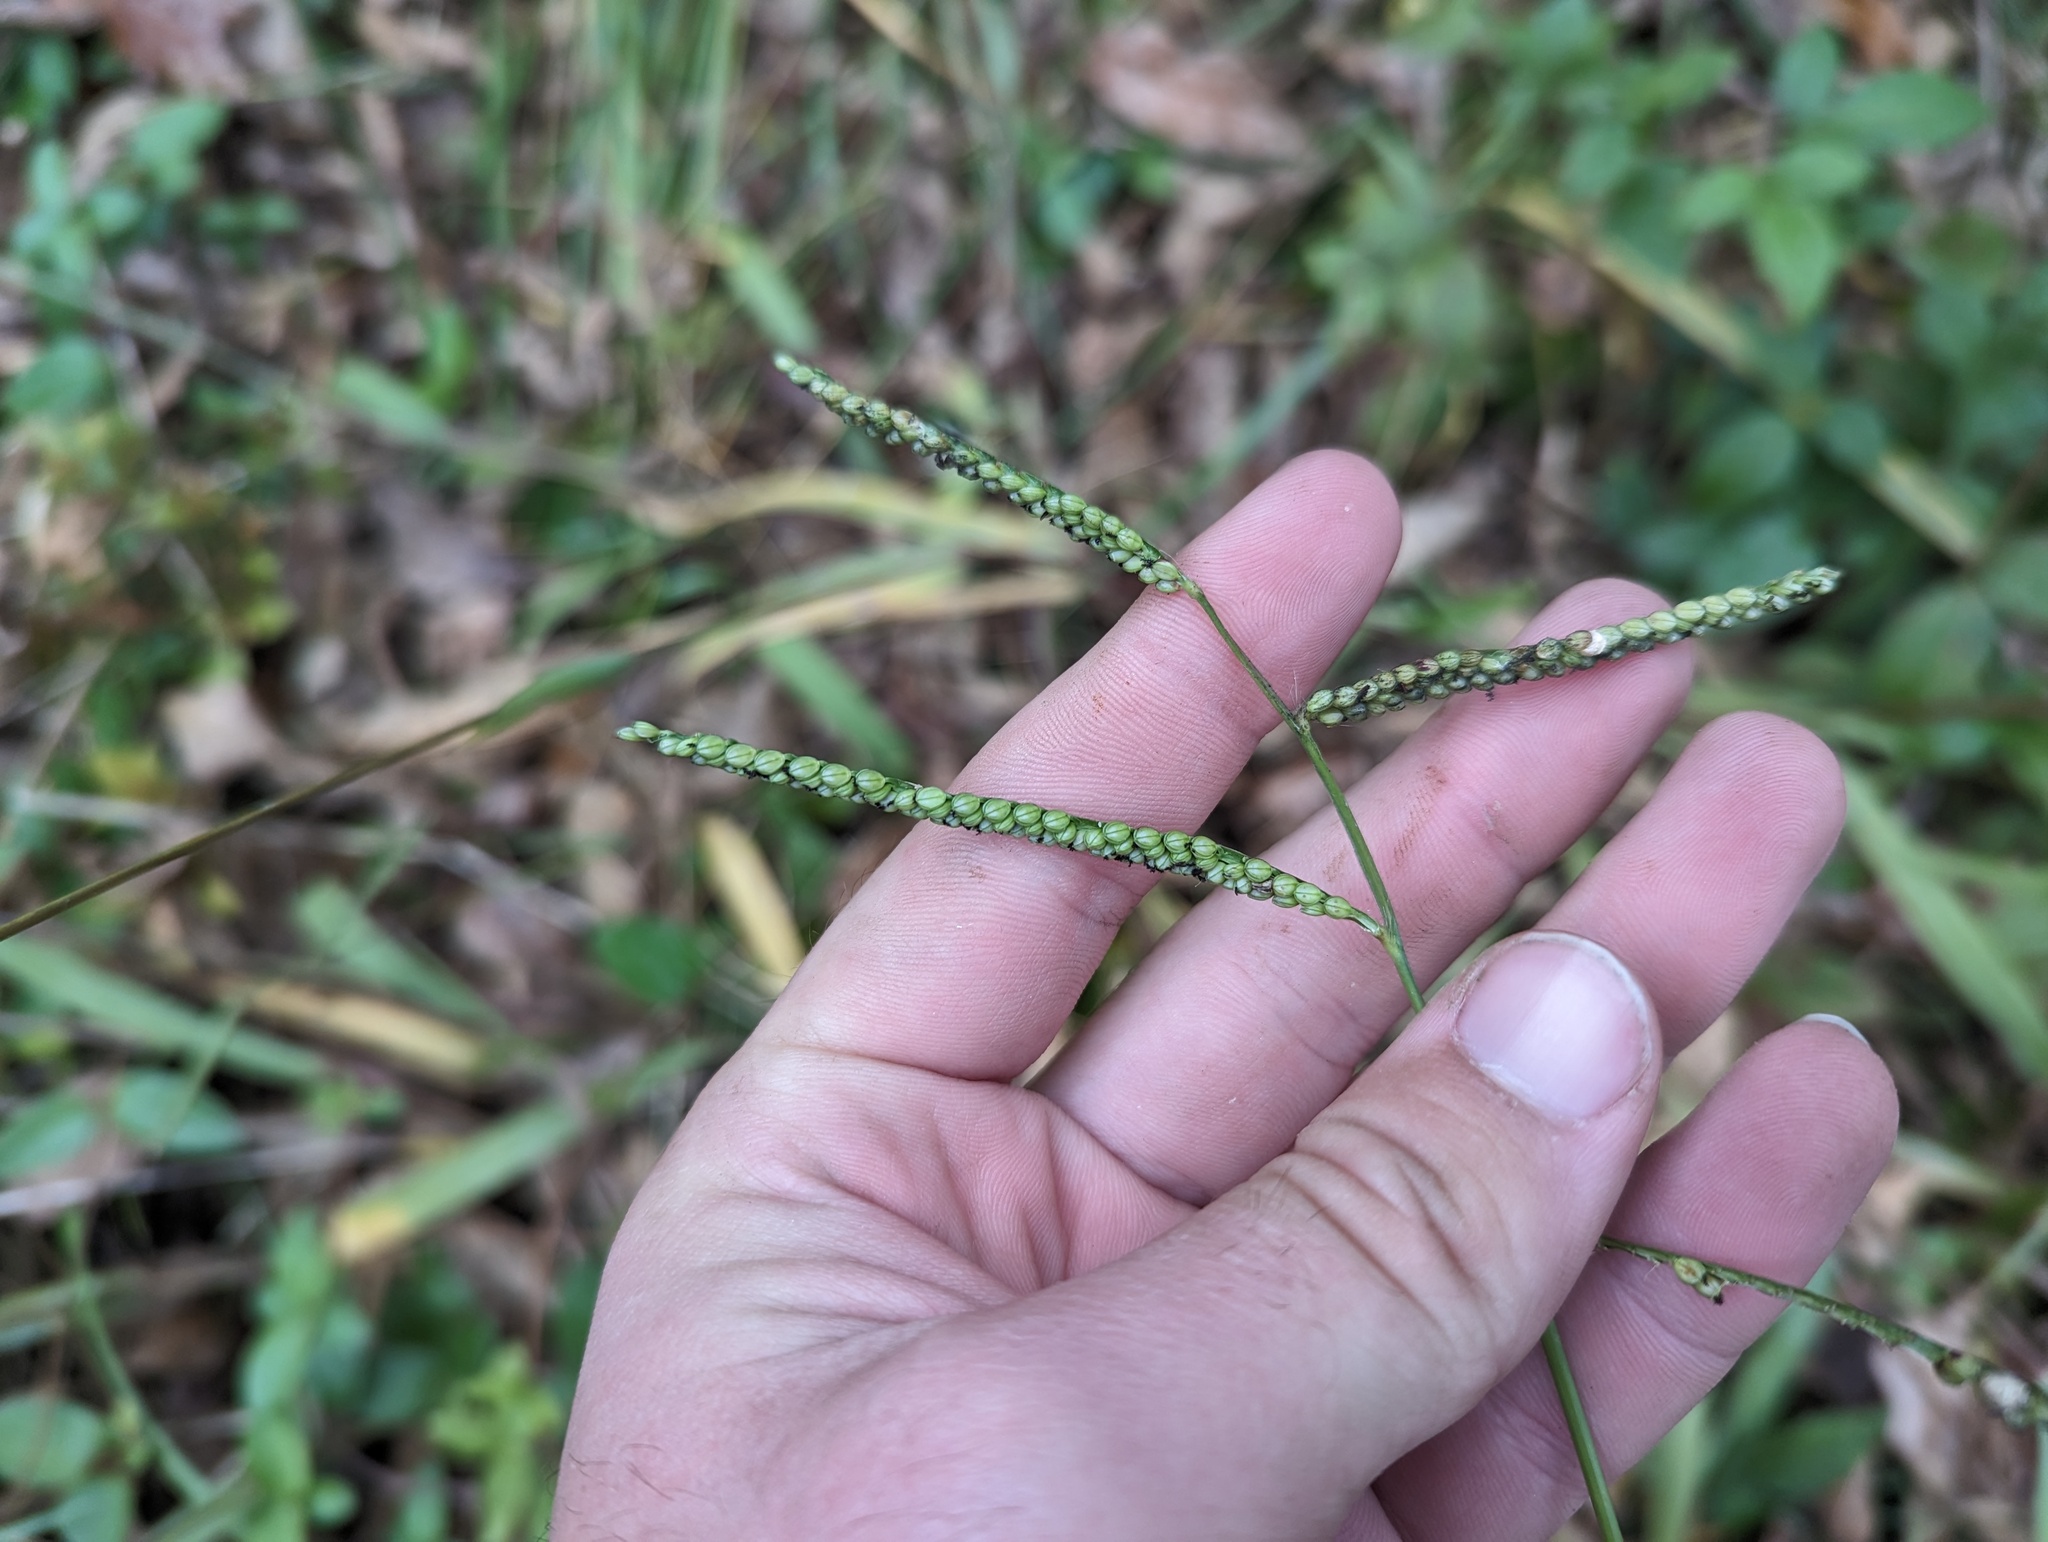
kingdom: Plantae
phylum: Tracheophyta
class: Liliopsida
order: Poales
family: Poaceae
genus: Paspalum
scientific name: Paspalum pubiflorum
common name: Hairy-seed paspalum
